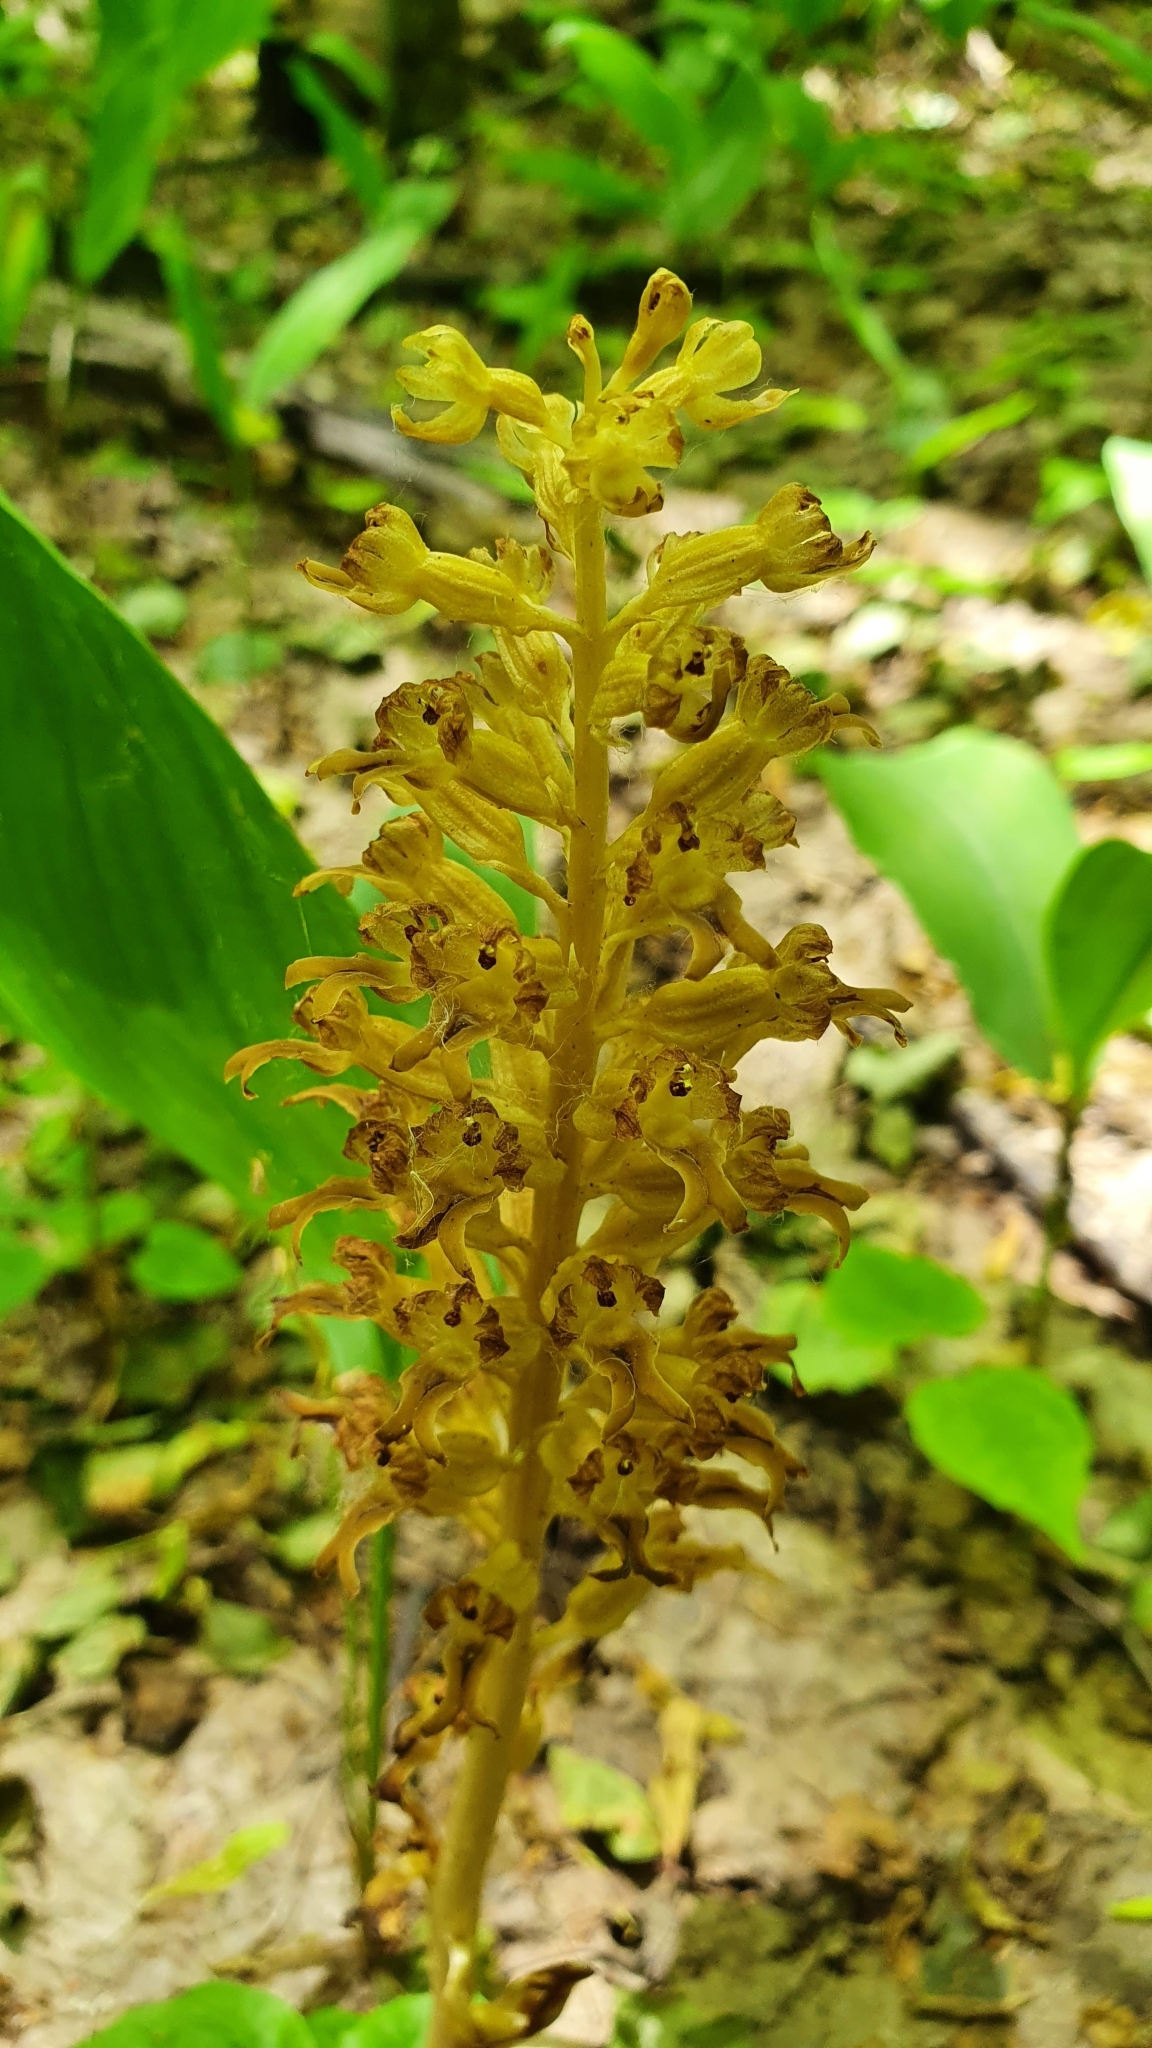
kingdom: Plantae
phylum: Tracheophyta
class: Liliopsida
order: Asparagales
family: Orchidaceae
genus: Neottia
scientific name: Neottia nidus-avis
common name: Bird's-nest orchid
